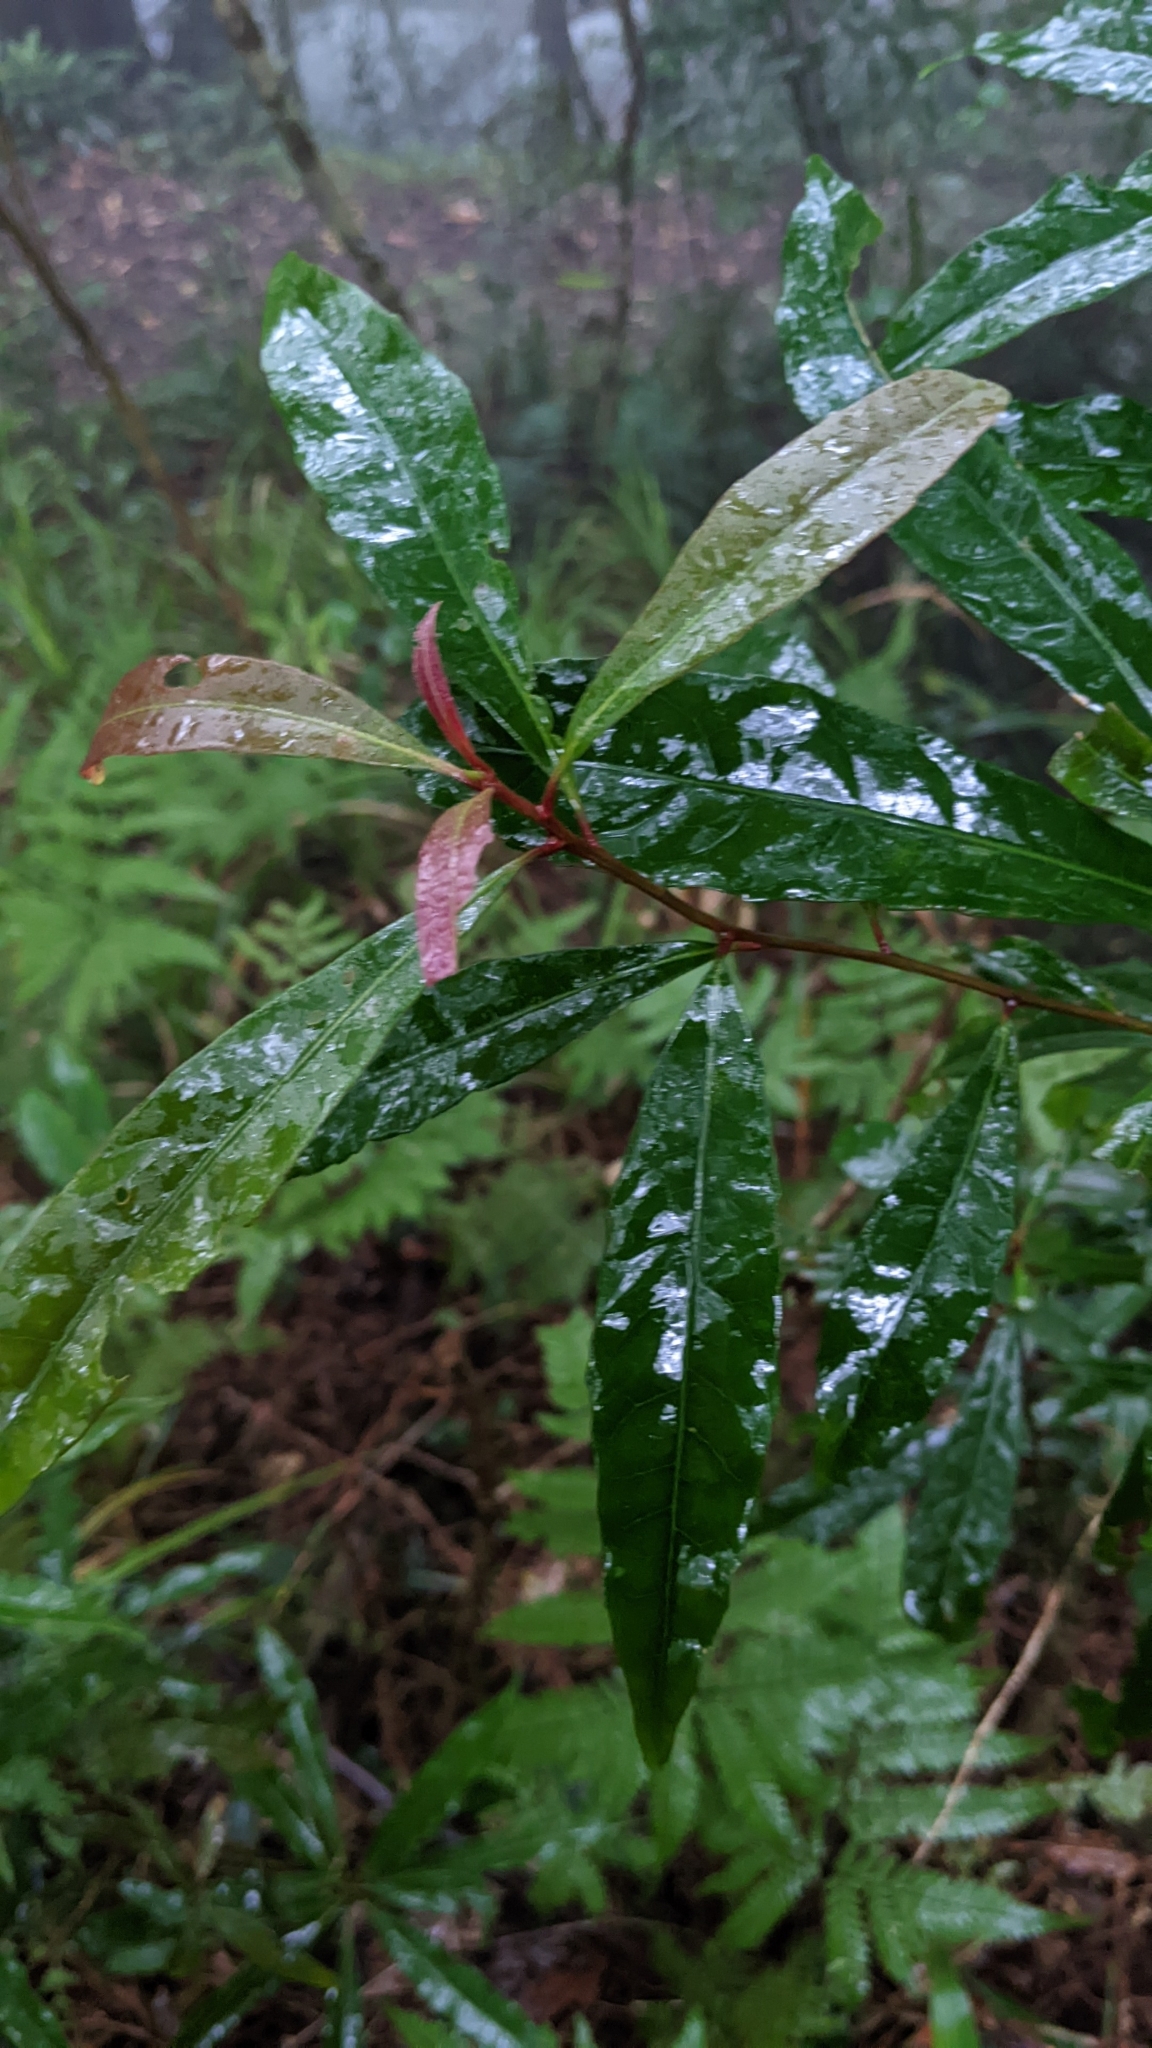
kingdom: Plantae
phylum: Tracheophyta
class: Magnoliopsida
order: Oxalidales
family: Elaeocarpaceae
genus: Elaeocarpus
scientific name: Elaeocarpus decipiens
